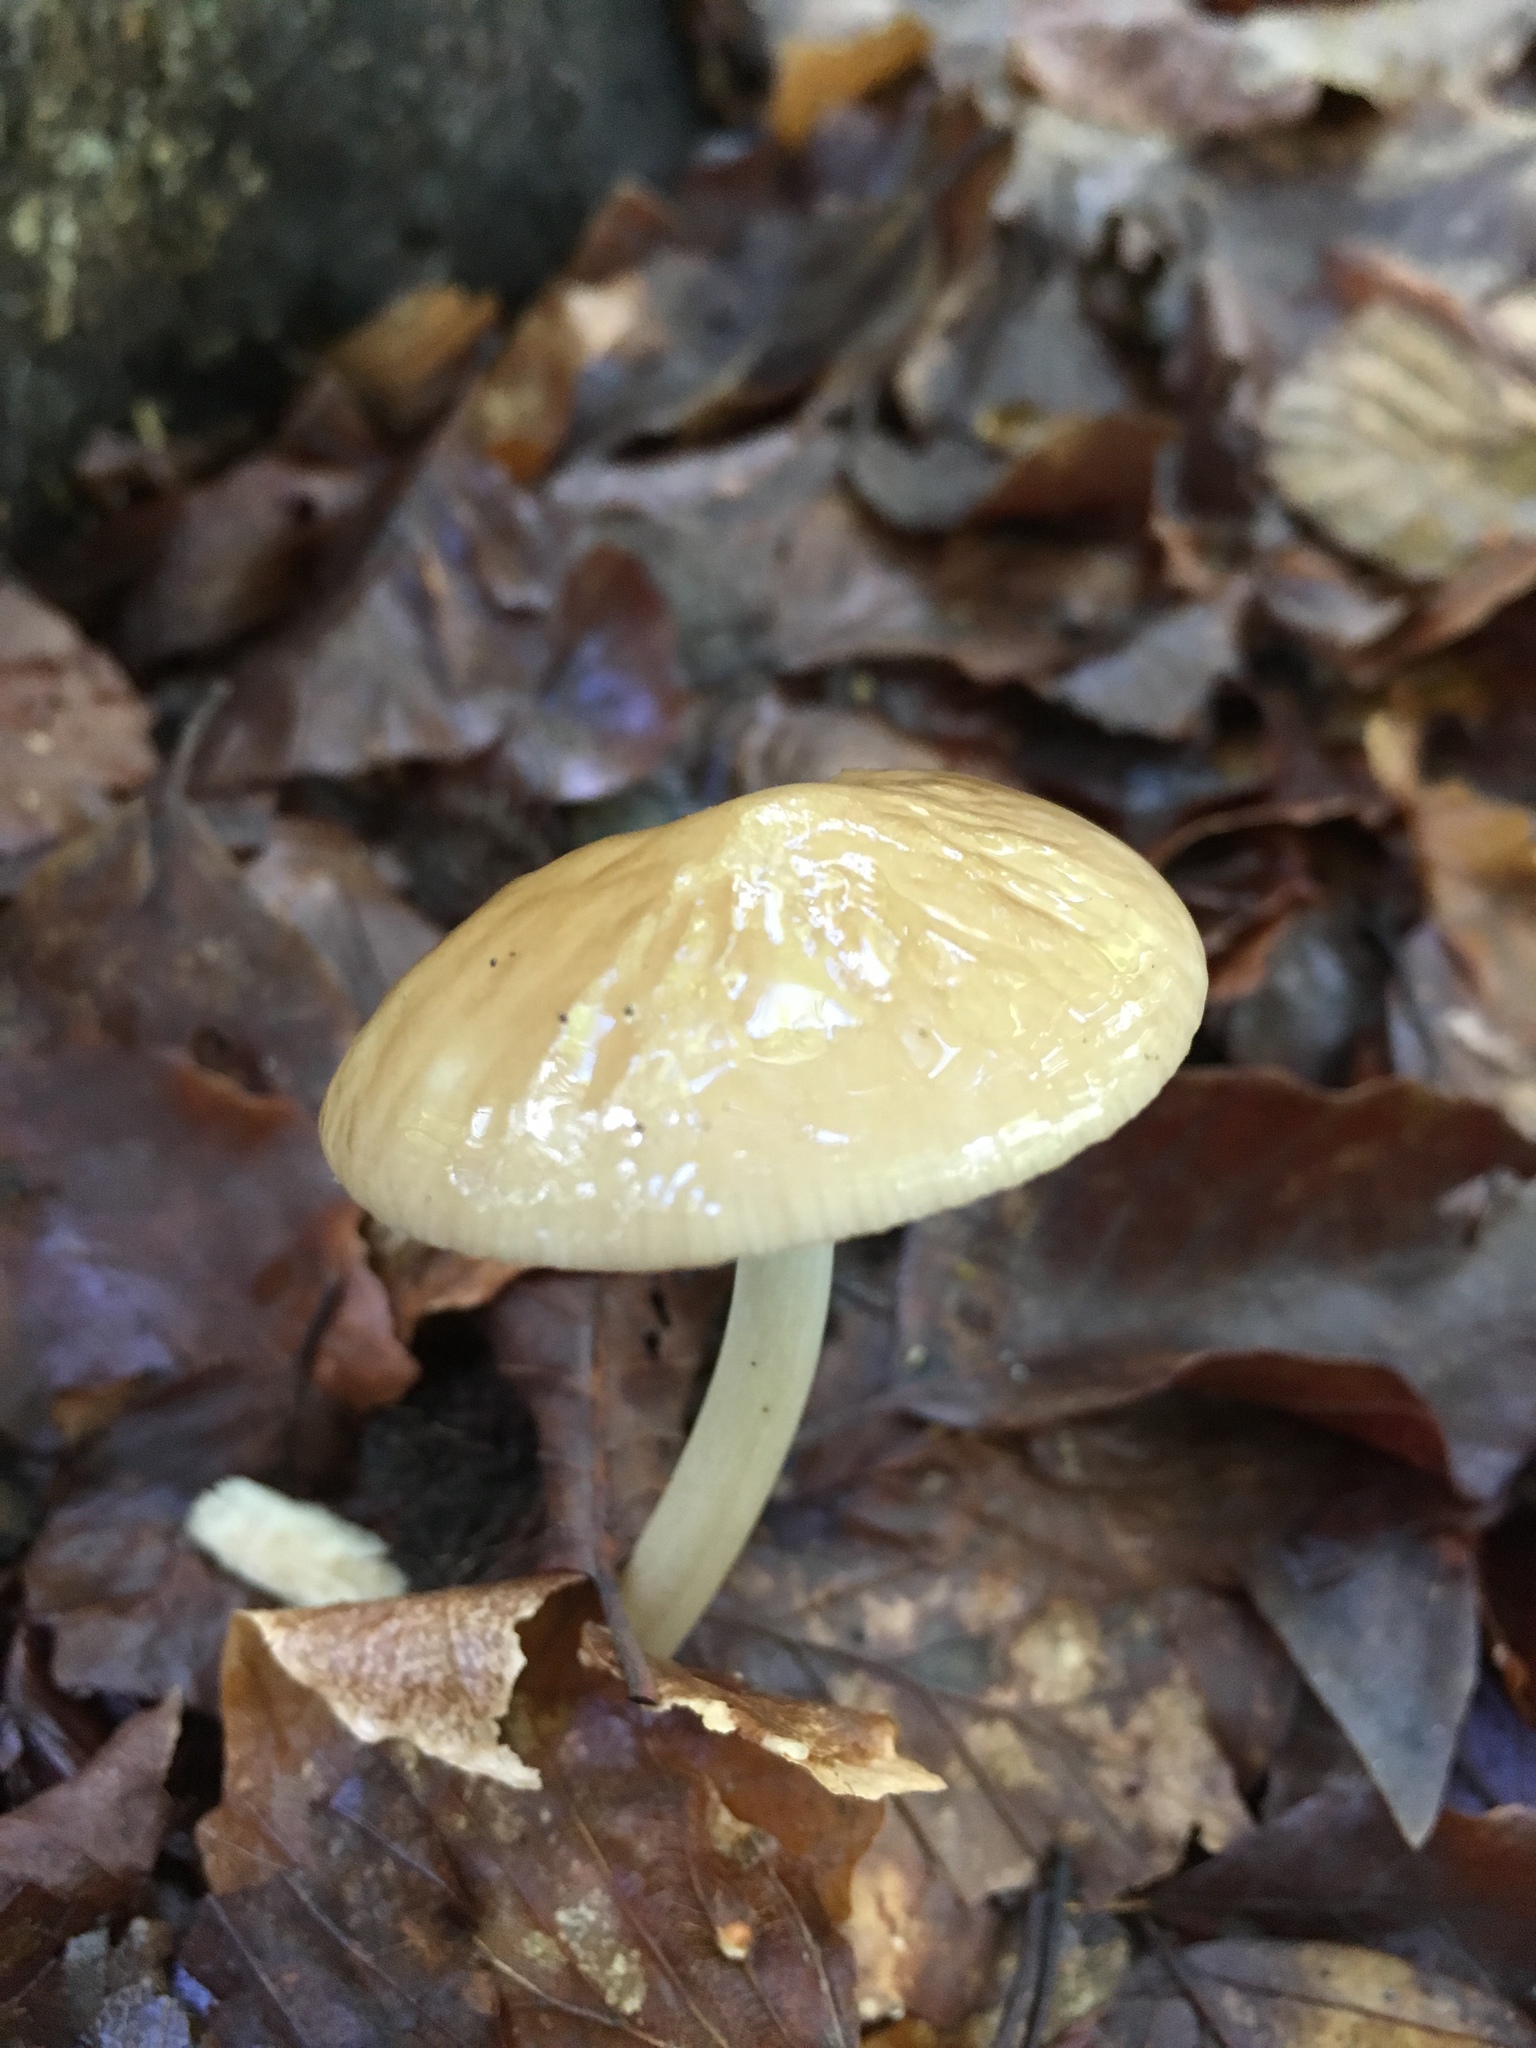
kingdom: Fungi
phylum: Basidiomycota
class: Agaricomycetes
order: Agaricales
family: Physalacriaceae
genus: Hymenopellis
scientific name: Hymenopellis radicata
